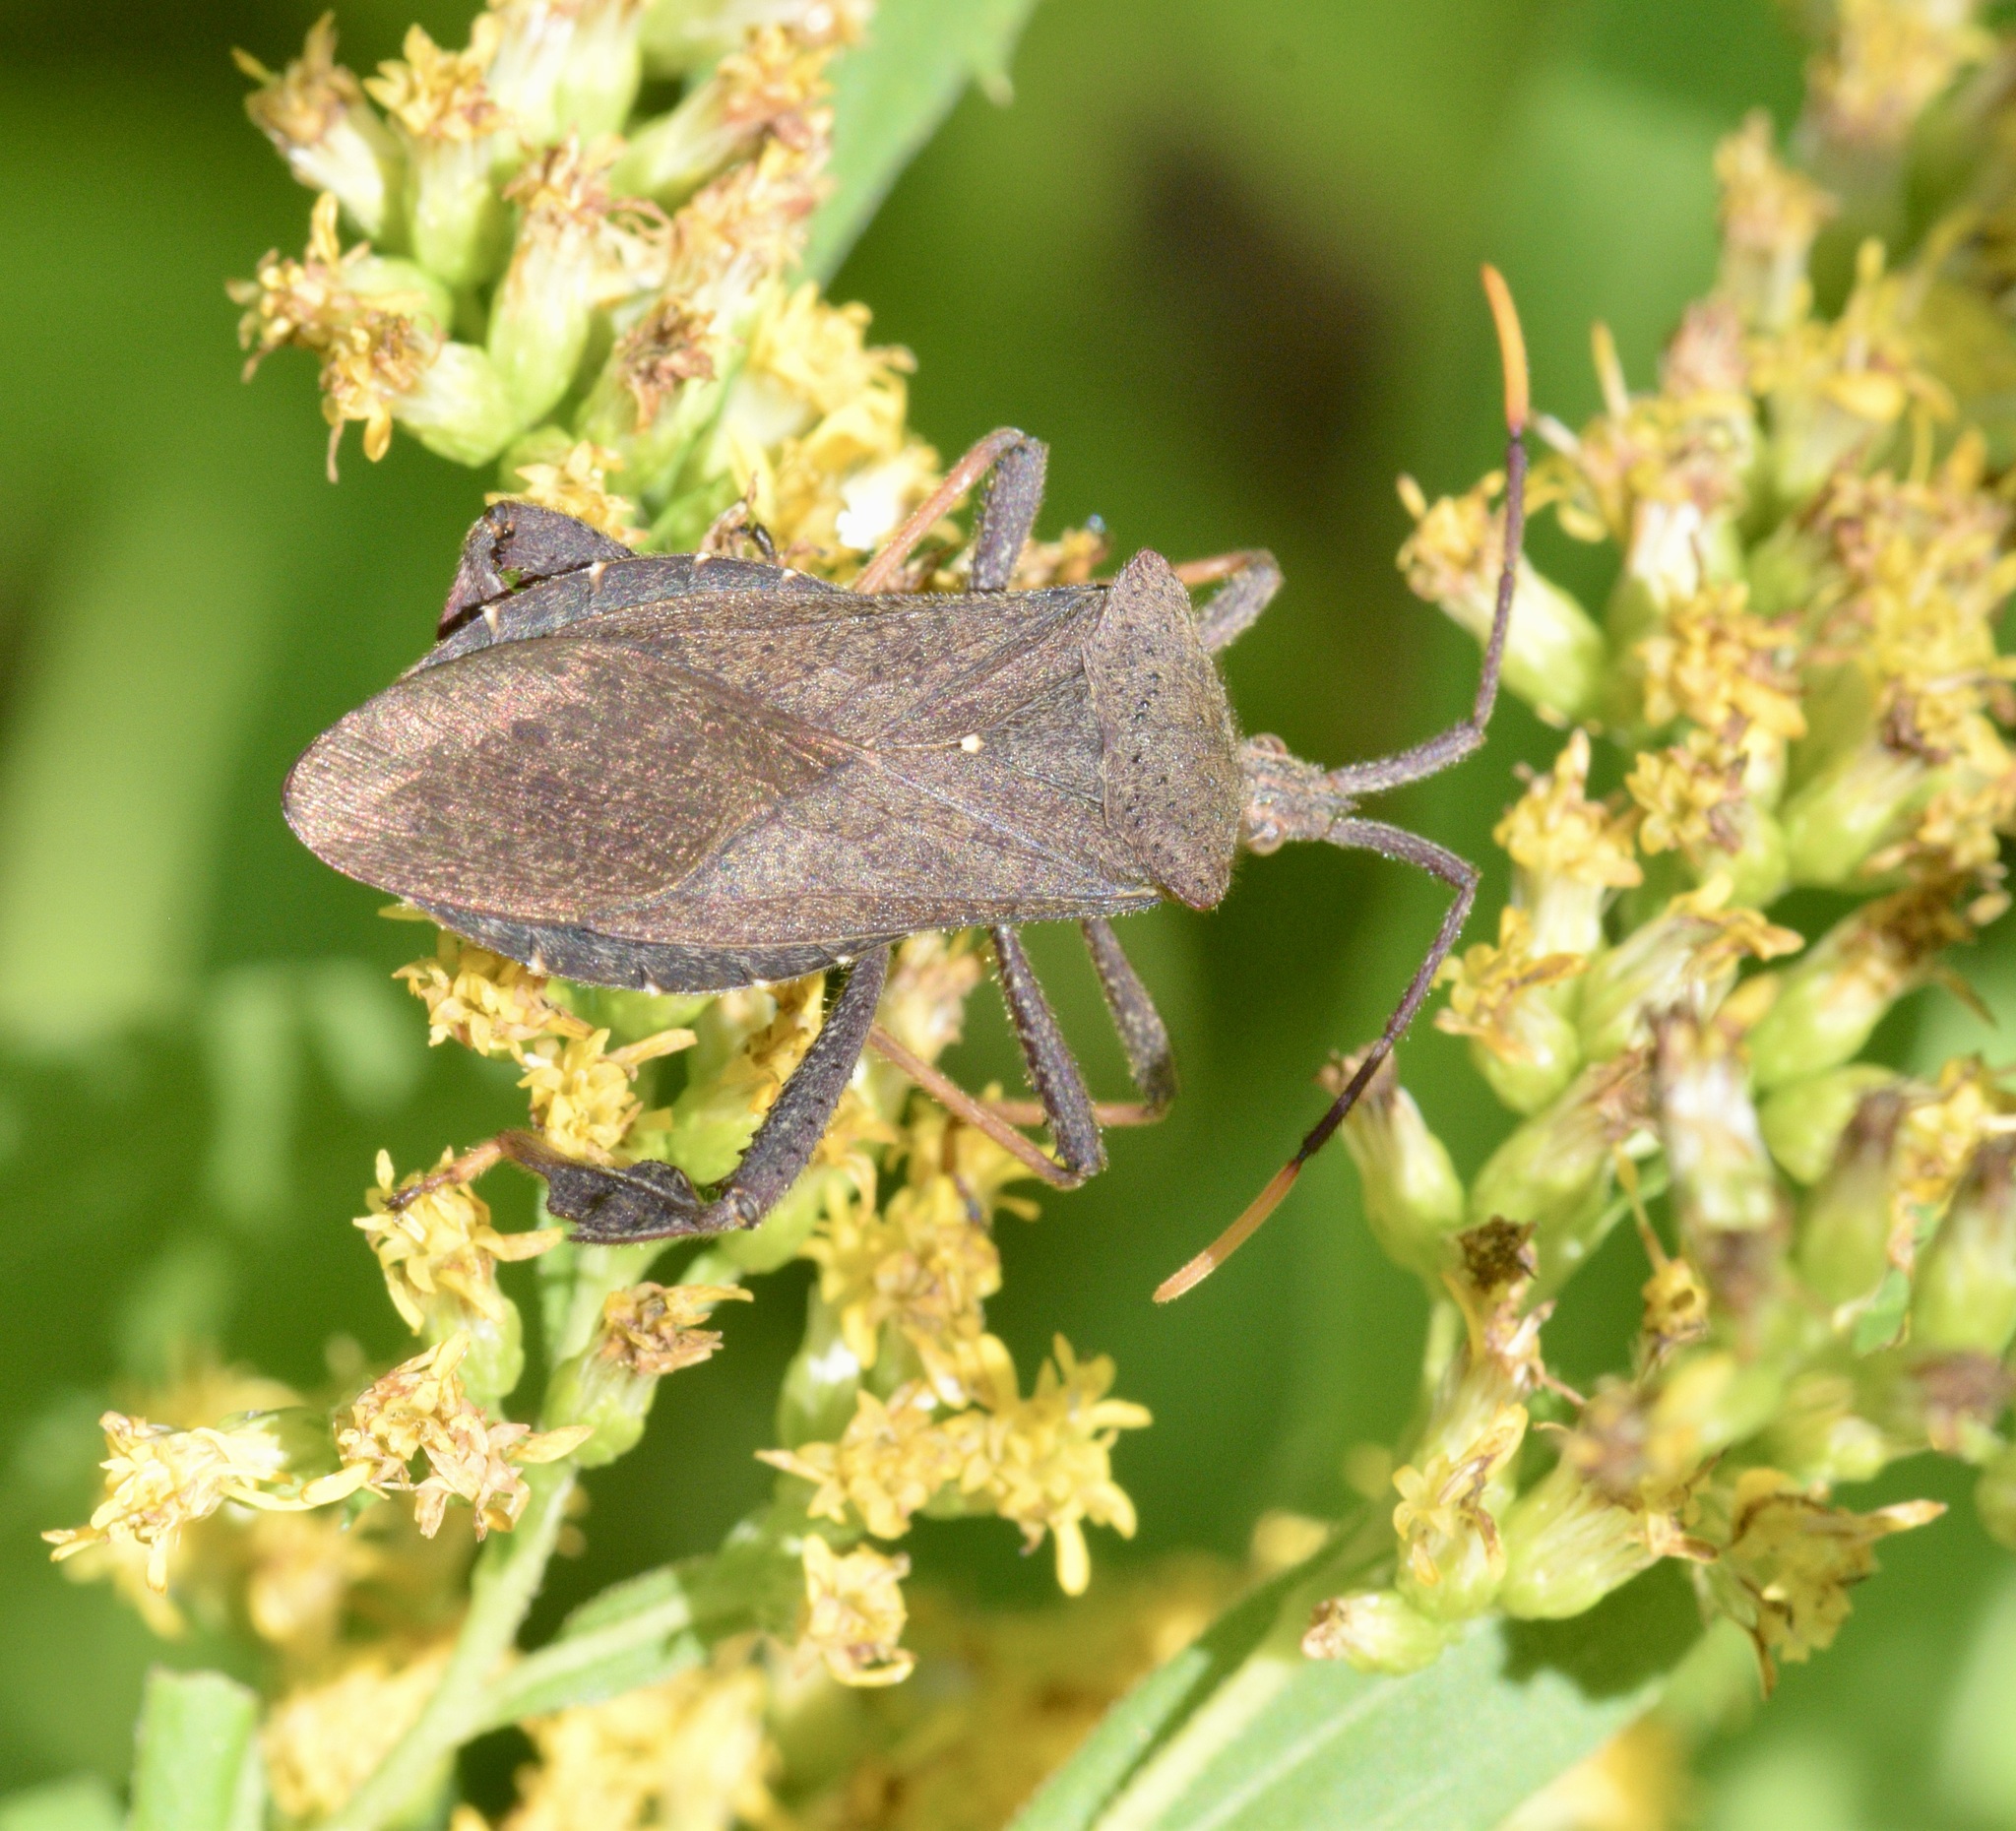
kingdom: Animalia
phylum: Arthropoda
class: Insecta
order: Hemiptera
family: Coreidae
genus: Acanthocephala
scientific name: Acanthocephala terminalis
